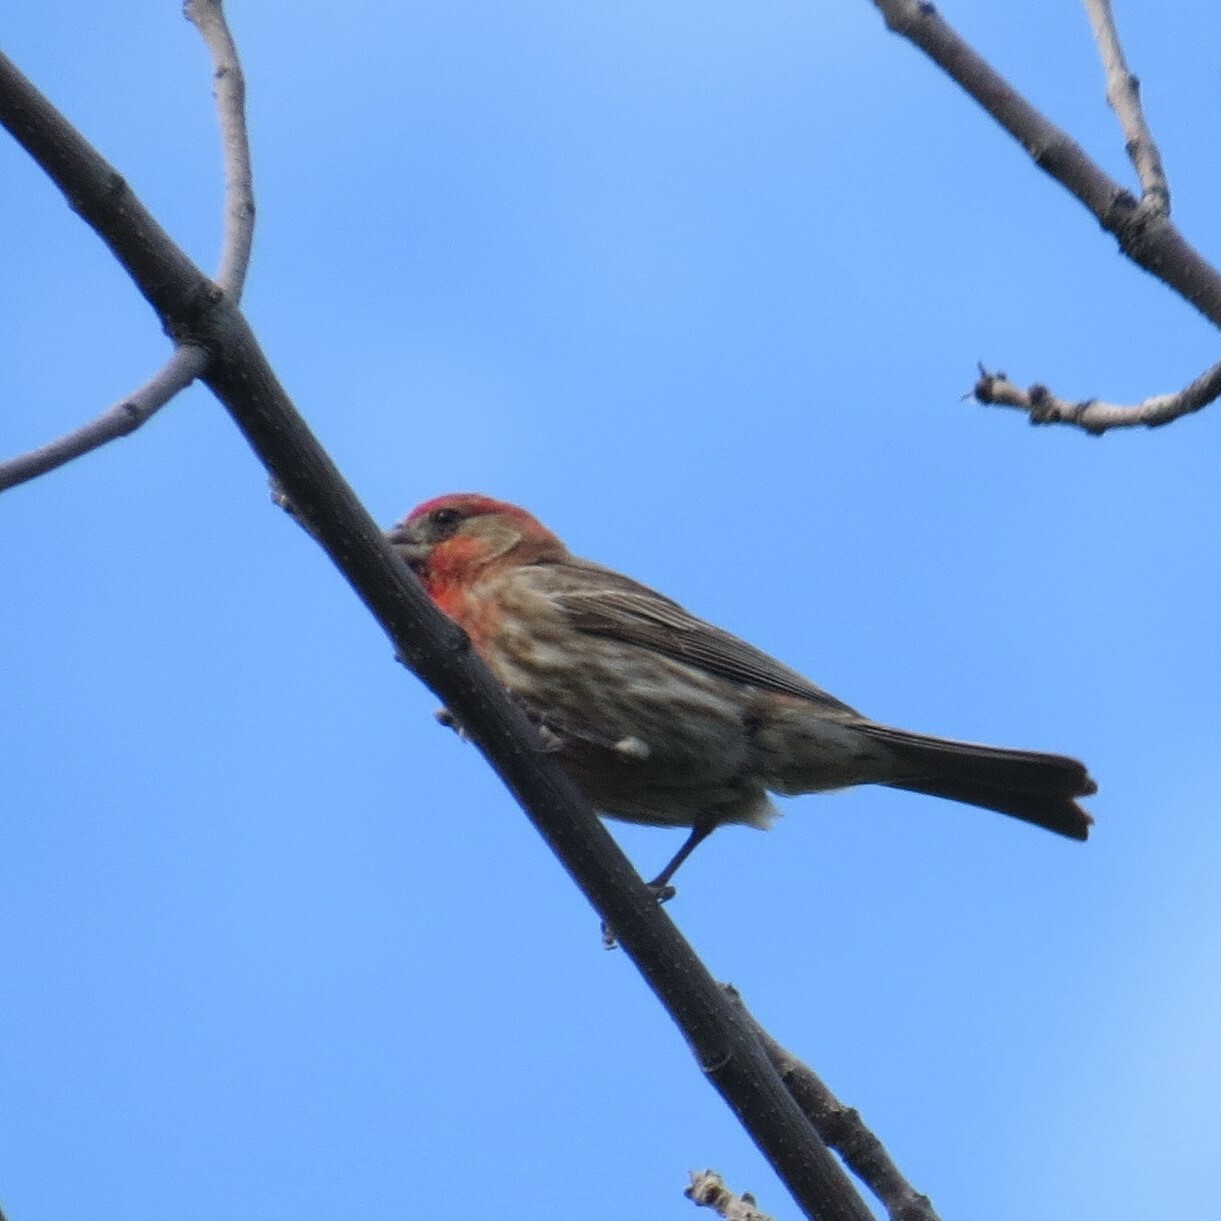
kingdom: Animalia
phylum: Chordata
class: Aves
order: Passeriformes
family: Fringillidae
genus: Haemorhous
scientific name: Haemorhous mexicanus
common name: House finch
